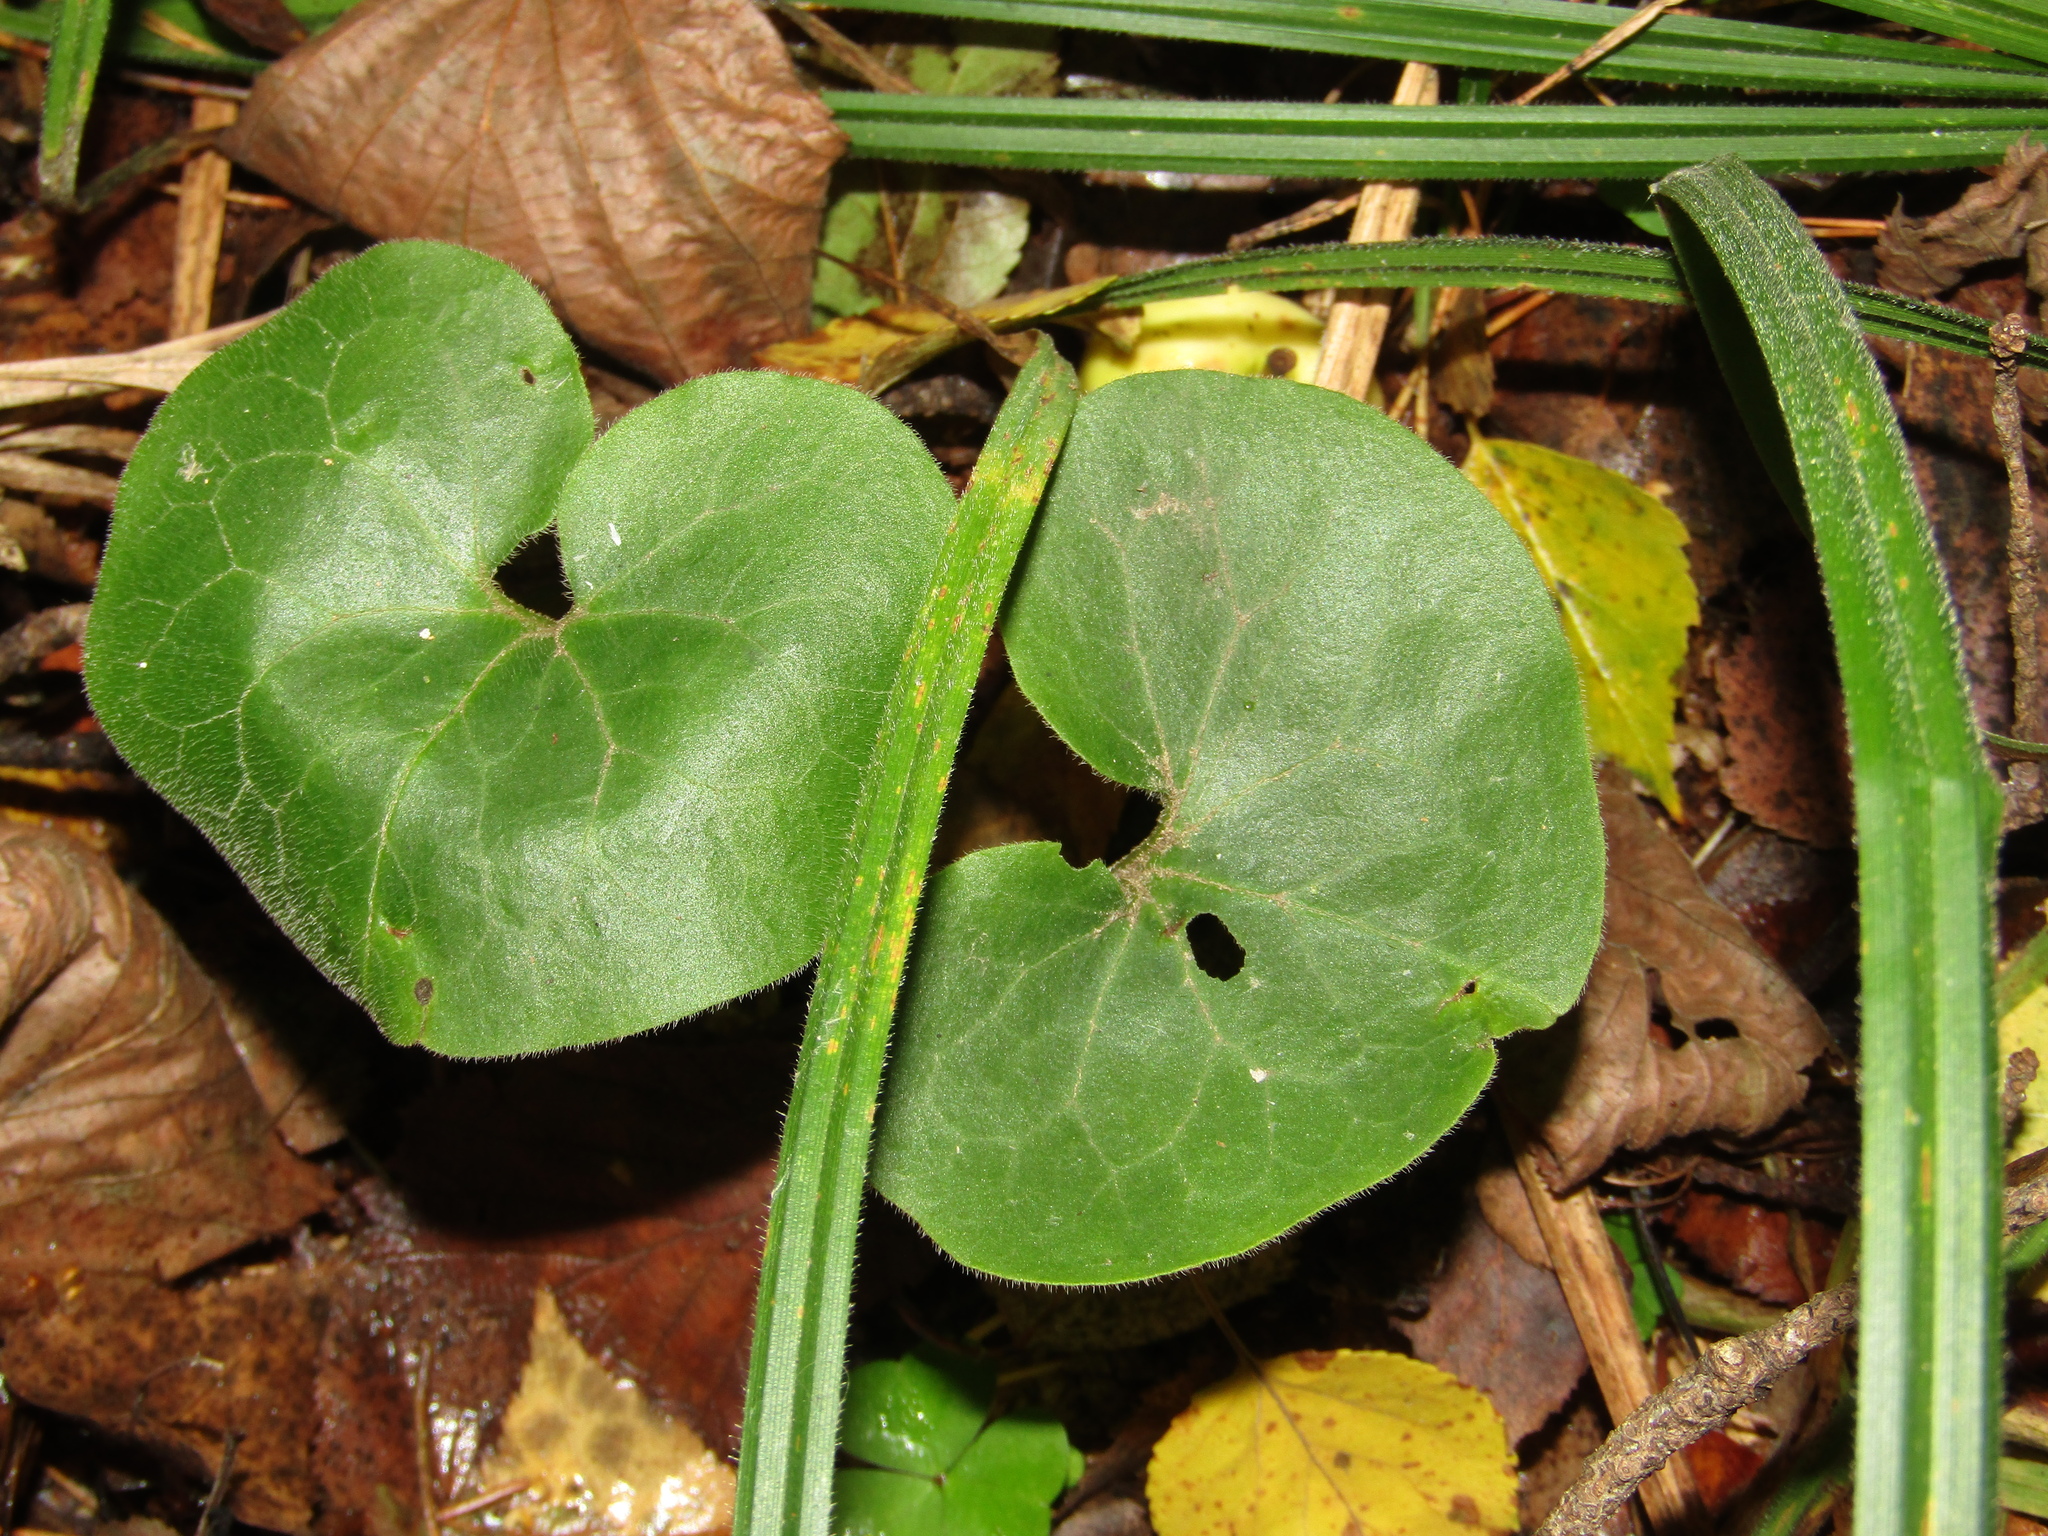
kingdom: Plantae
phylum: Tracheophyta
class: Magnoliopsida
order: Piperales
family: Aristolochiaceae
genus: Asarum
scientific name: Asarum europaeum
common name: Asarabacca
